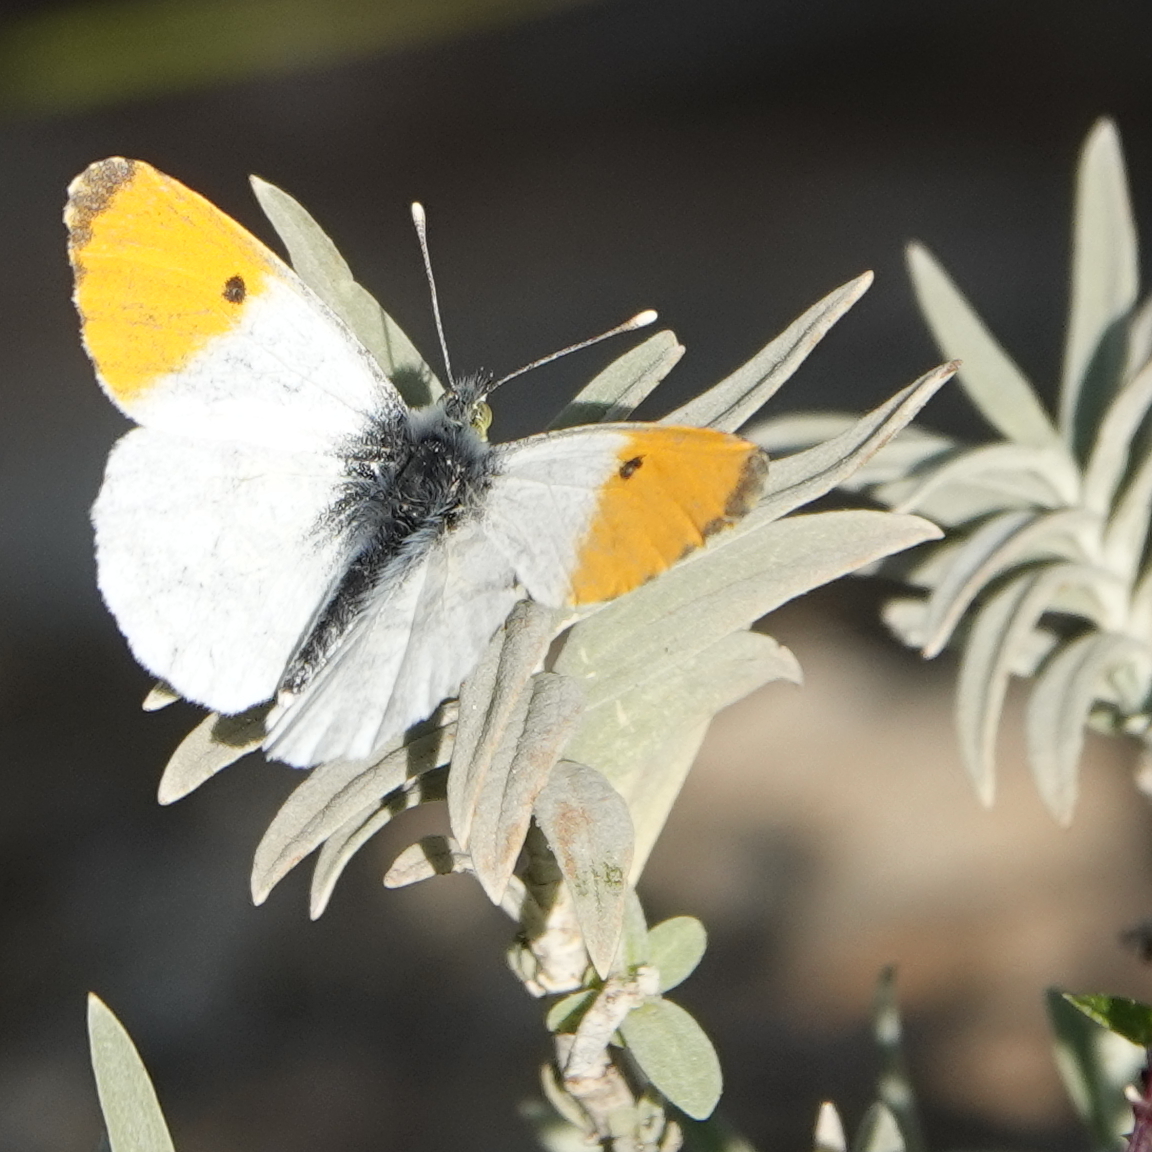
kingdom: Animalia
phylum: Arthropoda
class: Insecta
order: Lepidoptera
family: Pieridae
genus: Anthocharis
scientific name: Anthocharis cardamines
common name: Orange-tip
